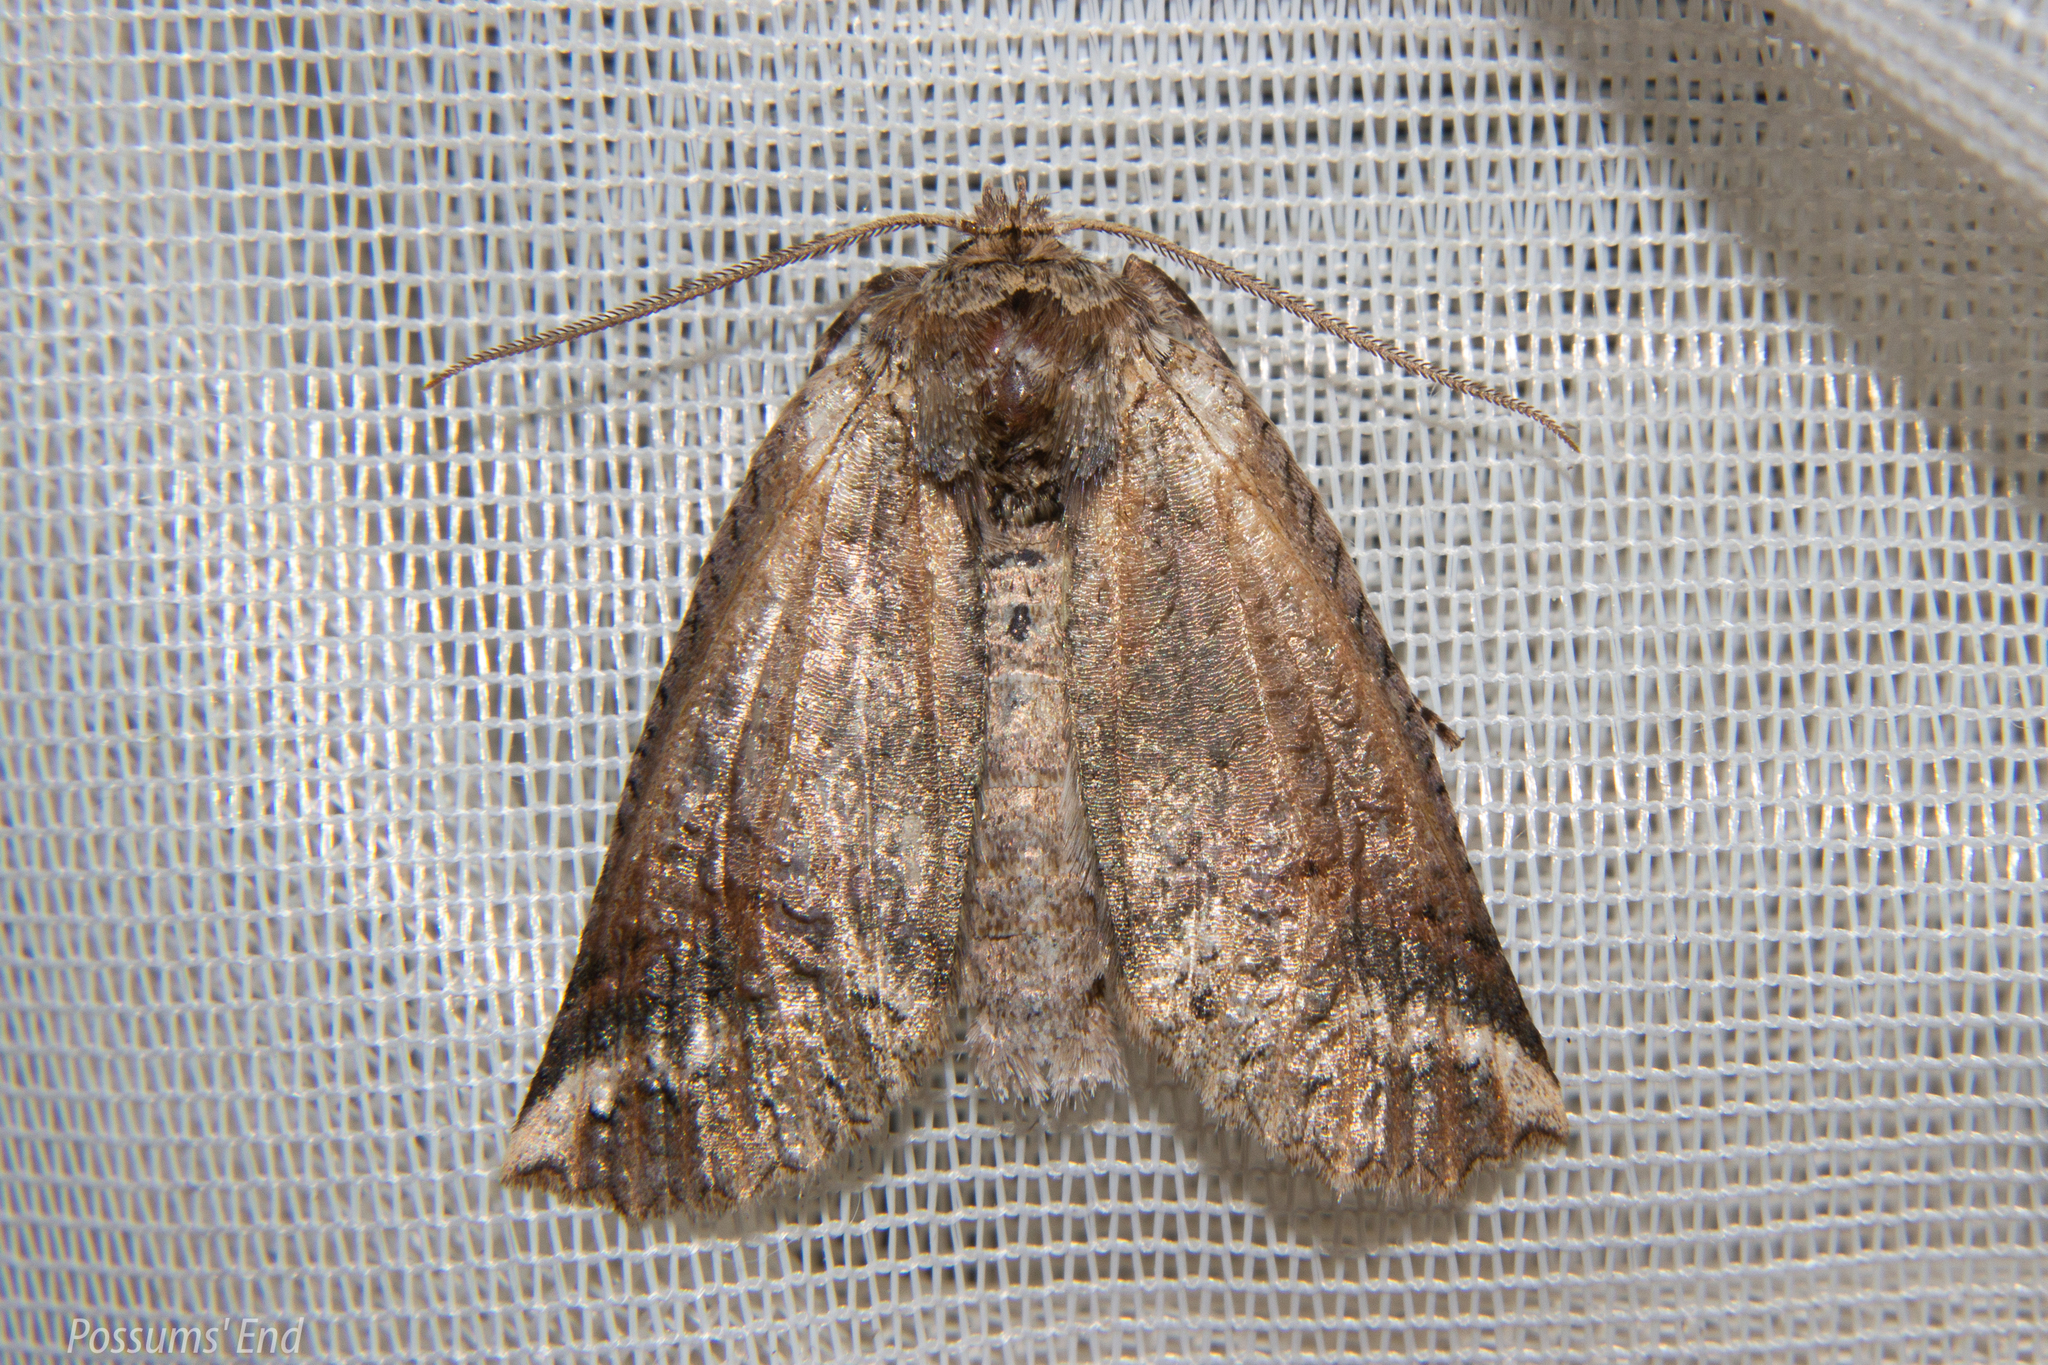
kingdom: Animalia
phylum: Arthropoda
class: Insecta
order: Lepidoptera
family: Geometridae
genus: Declana
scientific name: Declana
